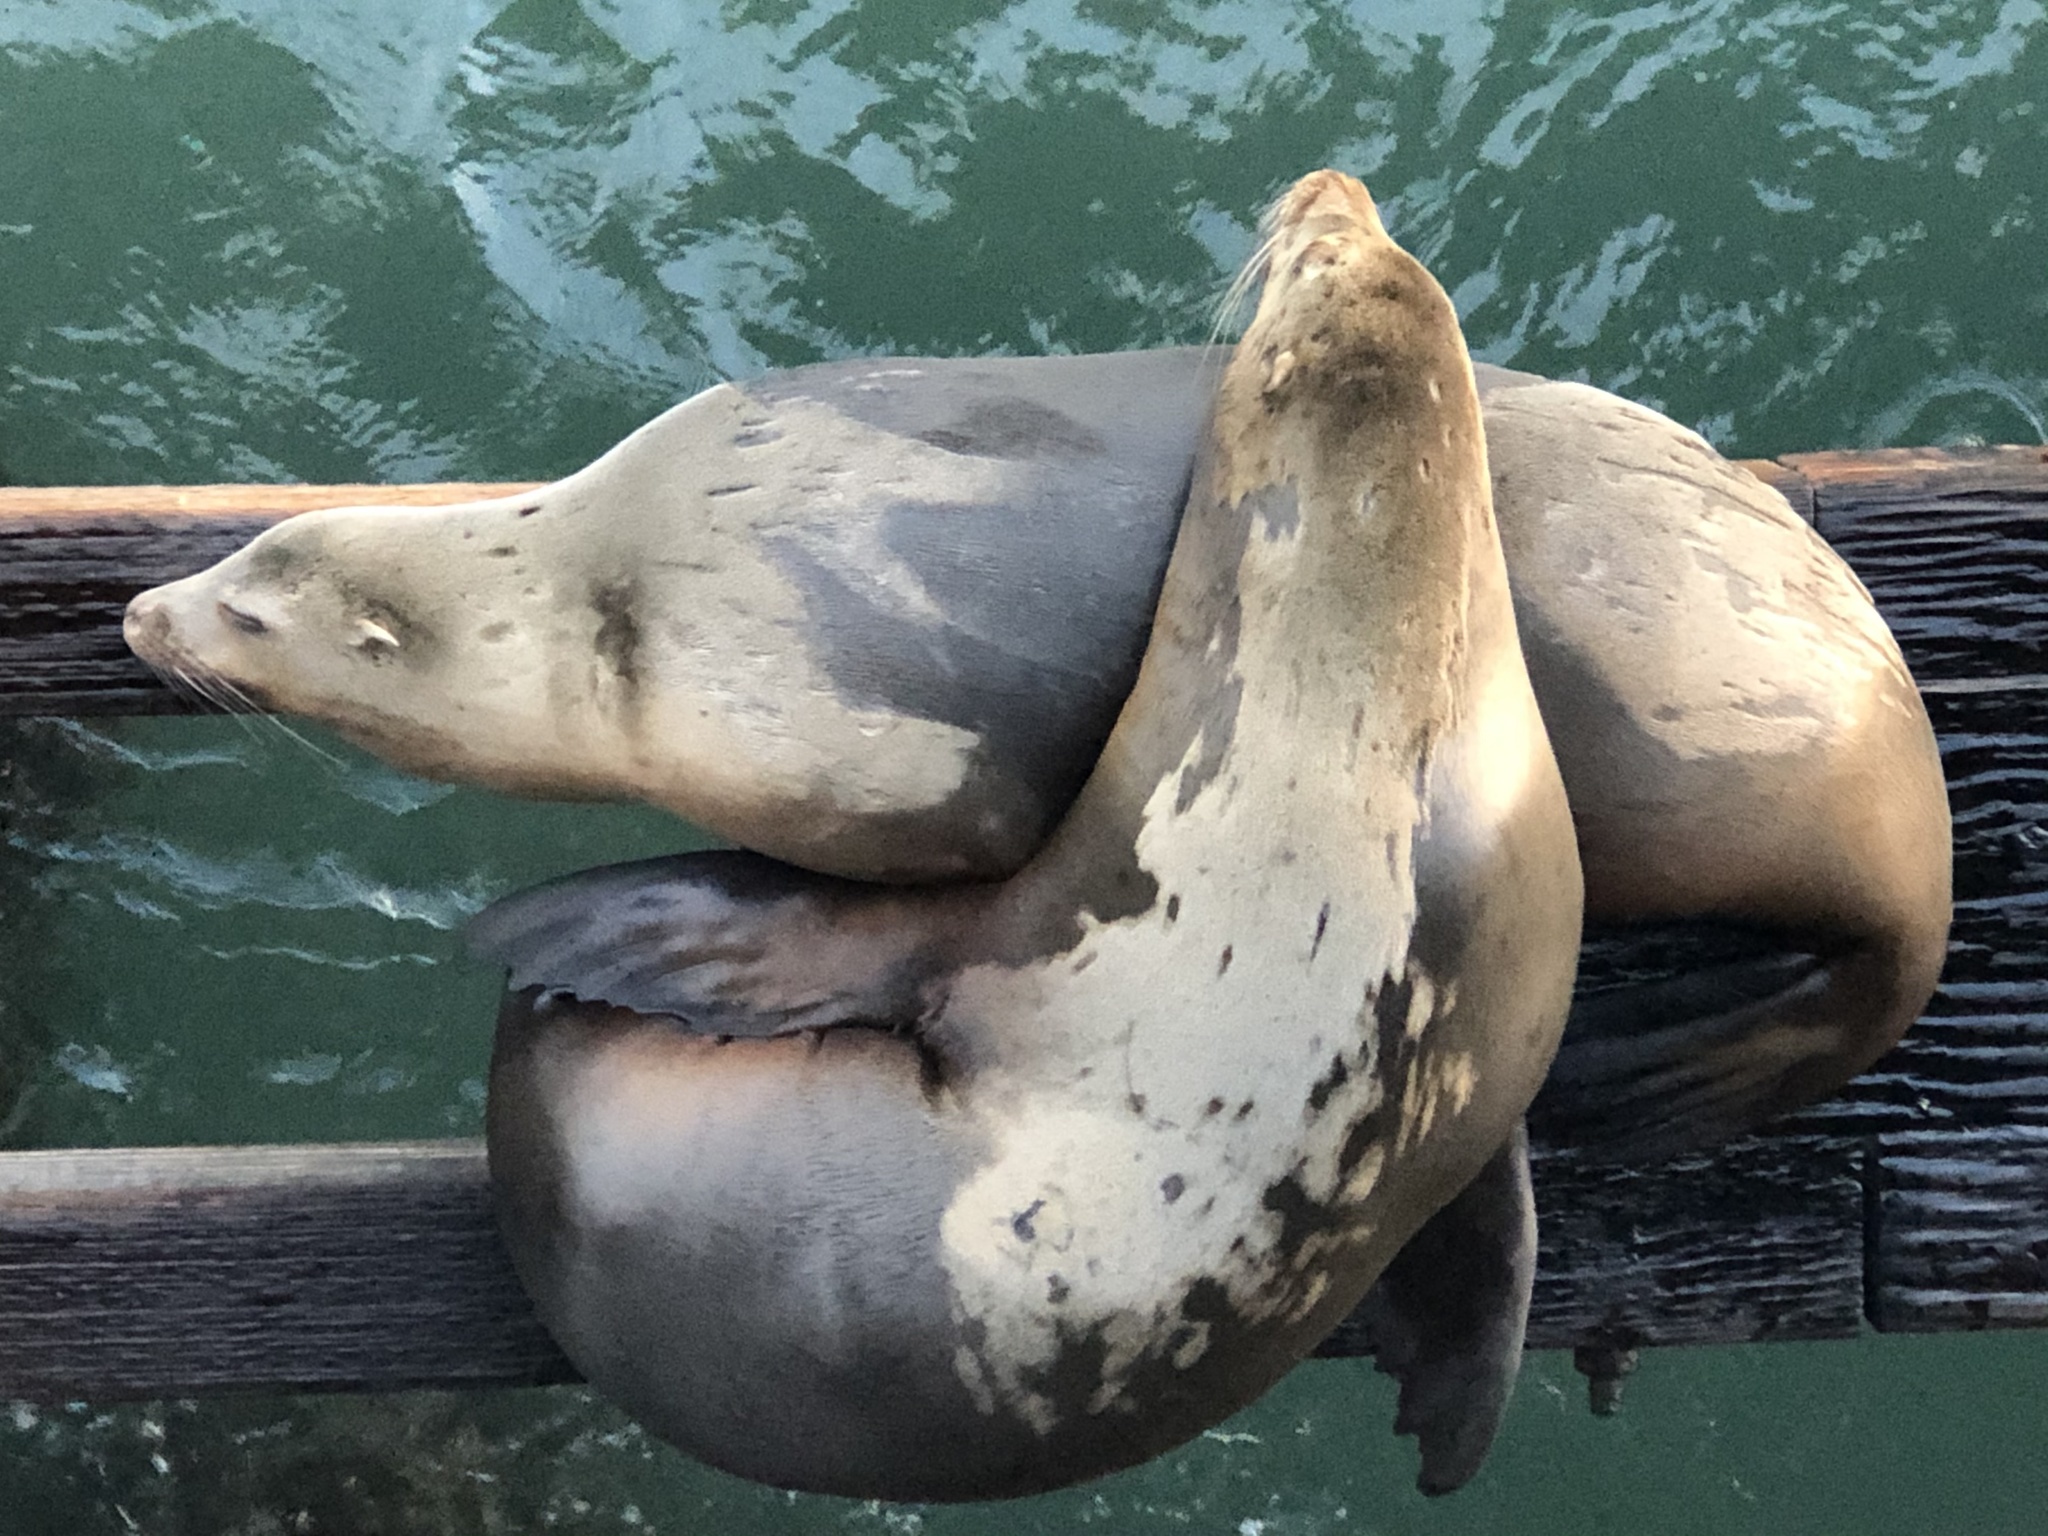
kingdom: Animalia
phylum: Chordata
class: Mammalia
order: Carnivora
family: Otariidae
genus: Zalophus
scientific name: Zalophus californianus
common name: California sea lion
